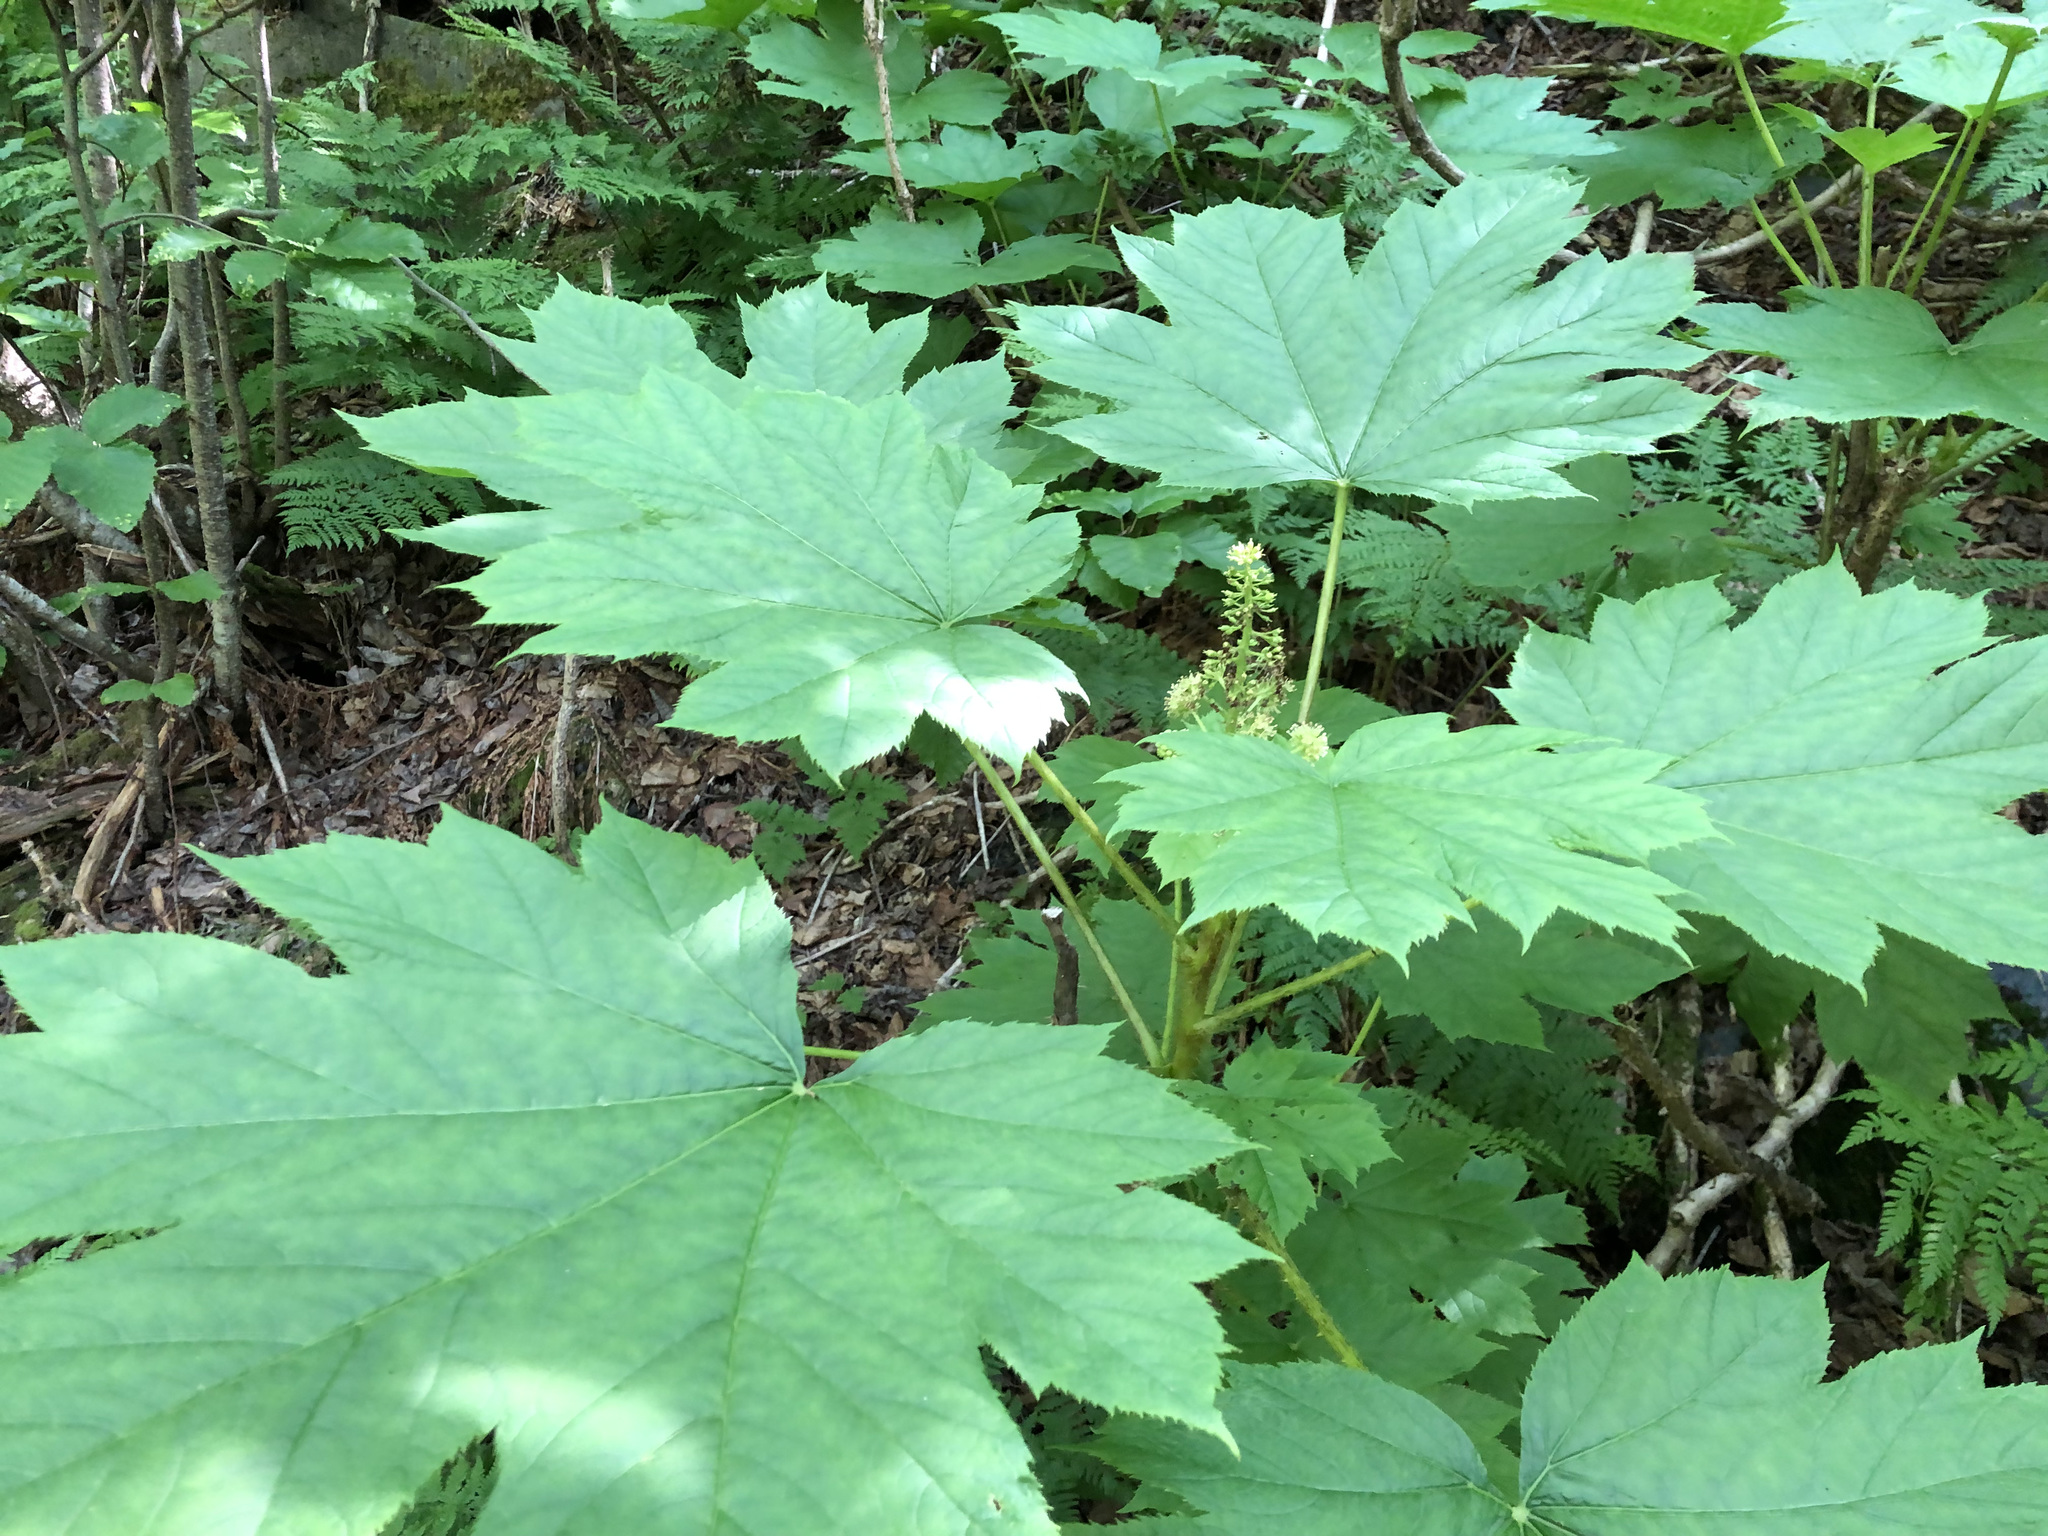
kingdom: Plantae
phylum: Tracheophyta
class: Magnoliopsida
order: Apiales
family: Araliaceae
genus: Oplopanax
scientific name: Oplopanax horridus
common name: Devil's walking-stick
